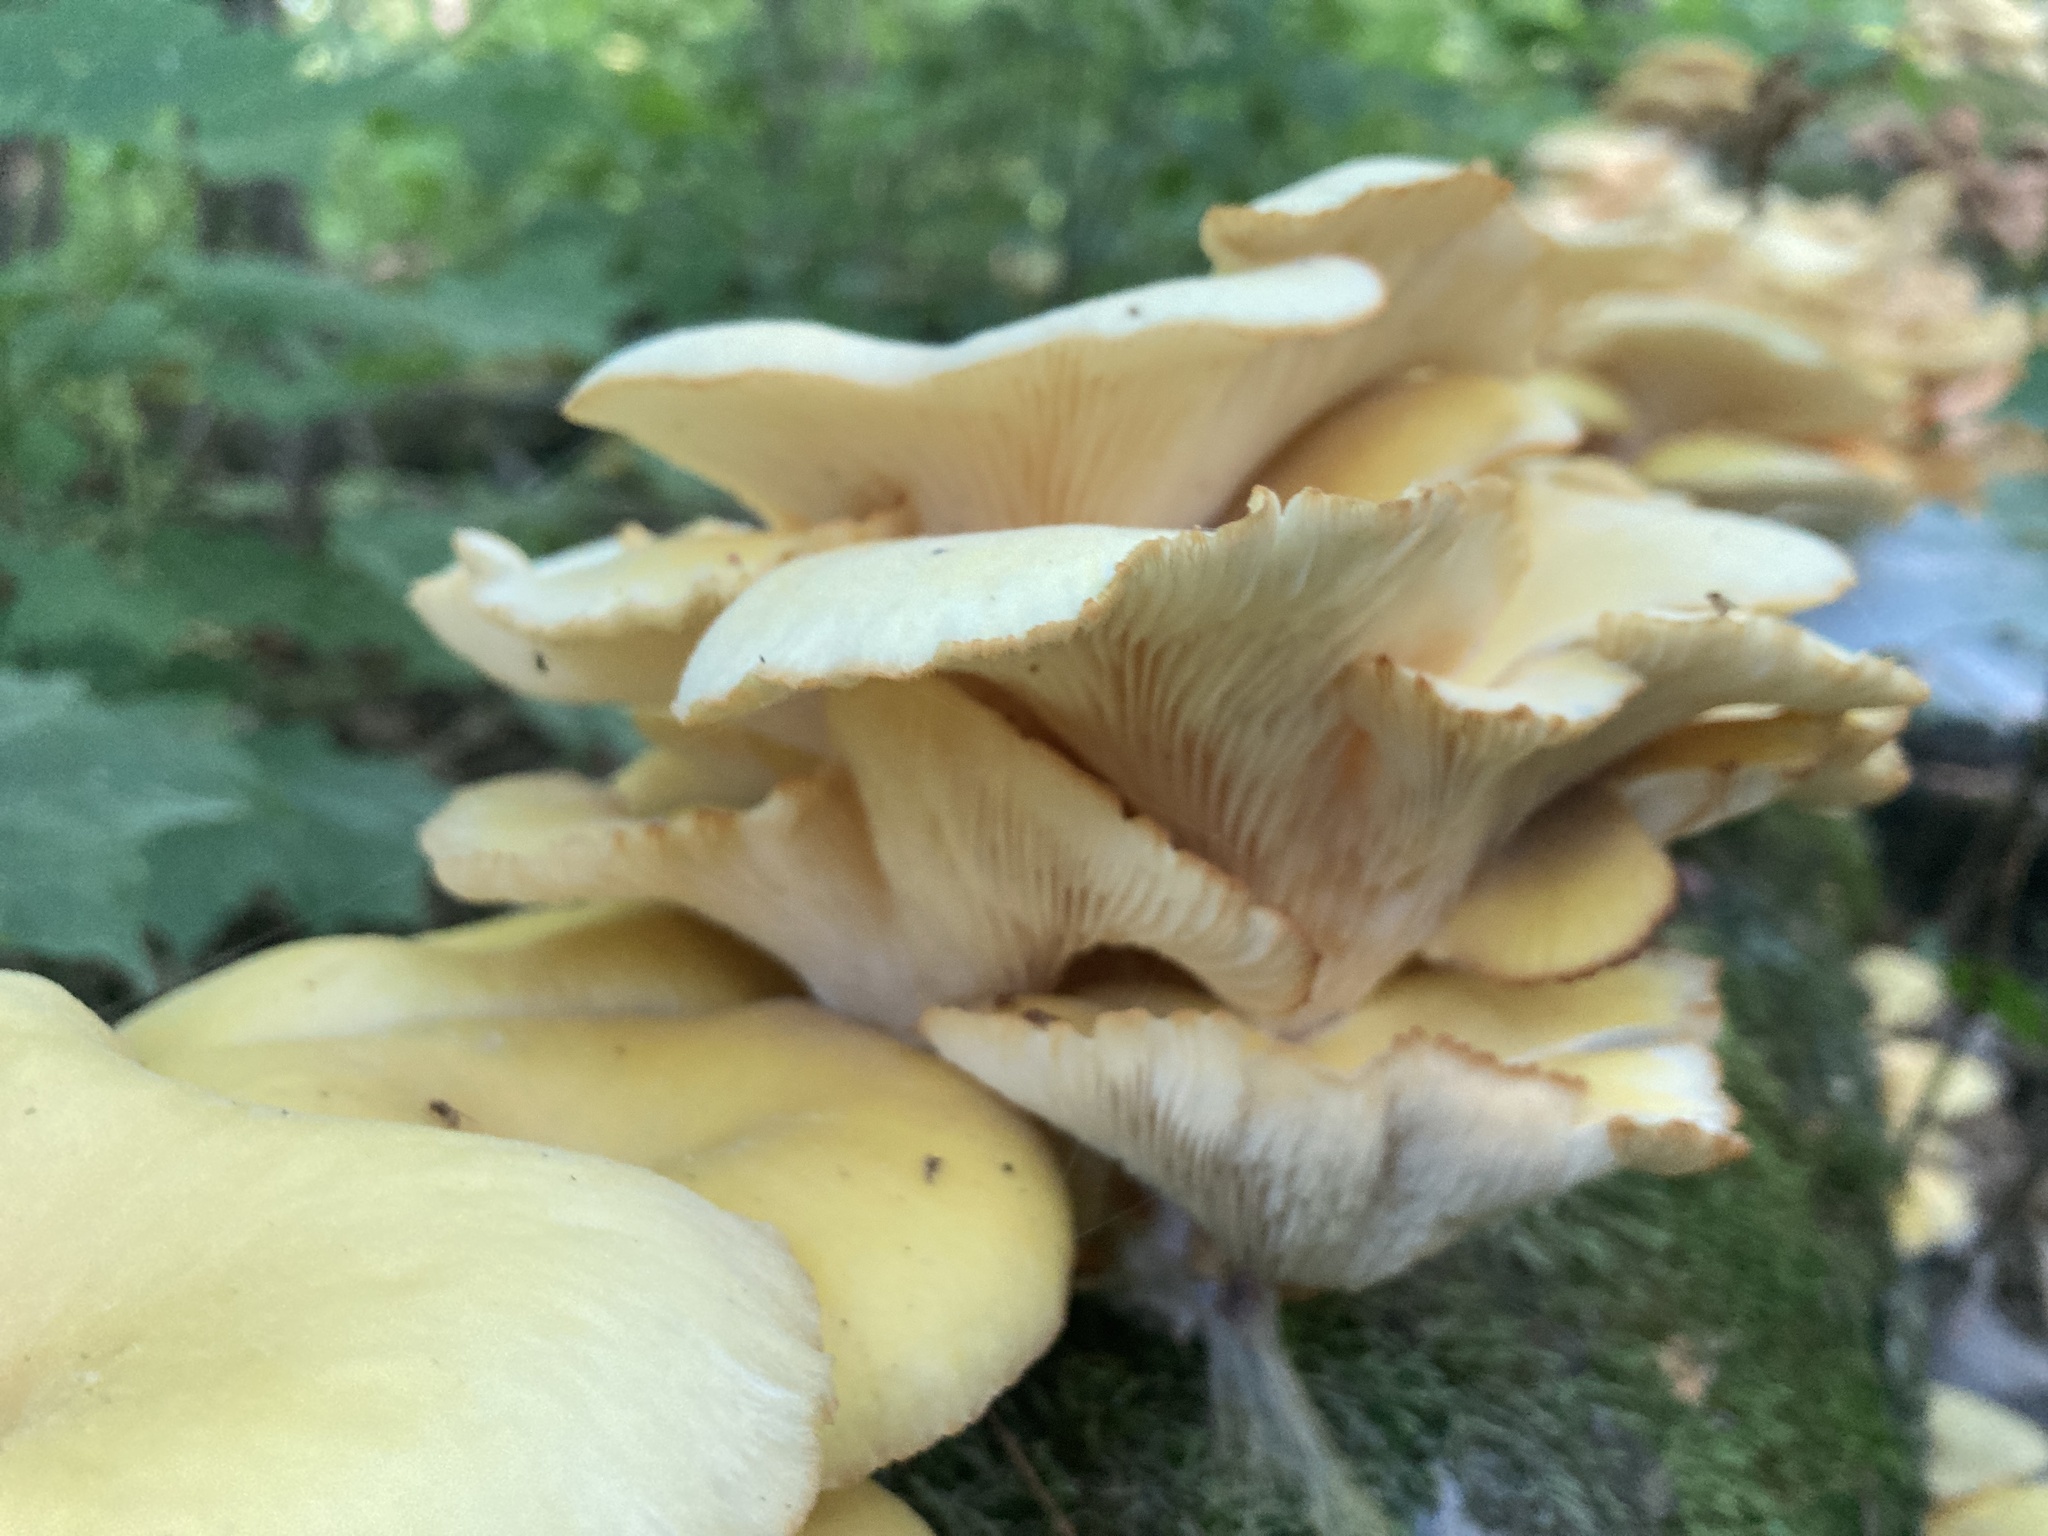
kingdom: Fungi
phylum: Basidiomycota
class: Agaricomycetes
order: Agaricales
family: Pleurotaceae
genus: Pleurotus
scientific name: Pleurotus citrinopileatus
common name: Golden oyster mushroom
